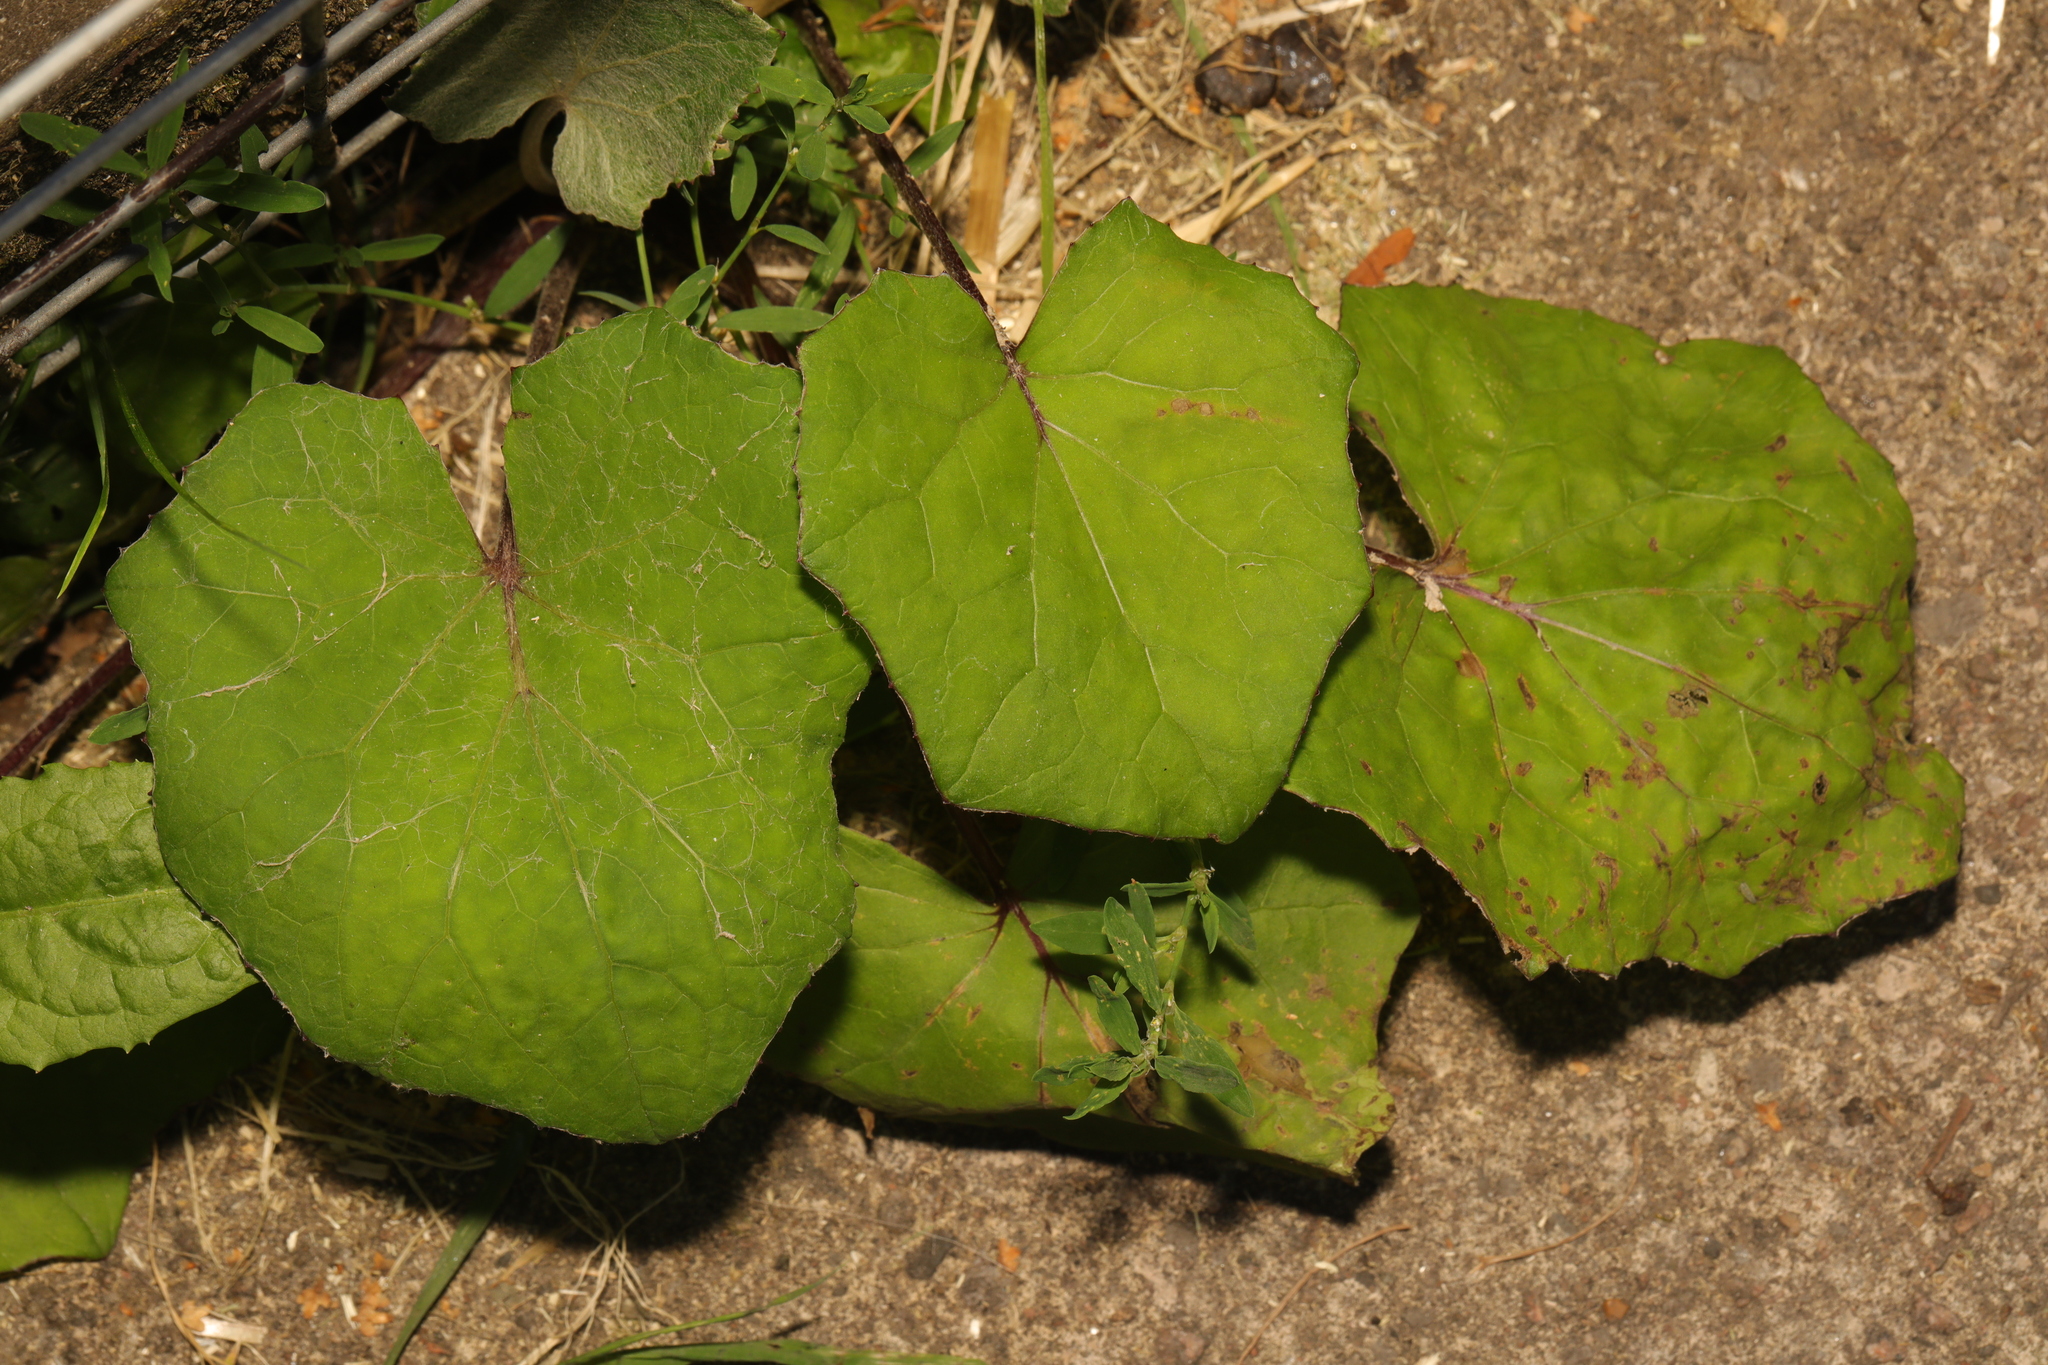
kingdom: Plantae
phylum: Tracheophyta
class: Magnoliopsida
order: Asterales
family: Asteraceae
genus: Tussilago
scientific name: Tussilago farfara
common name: Coltsfoot
